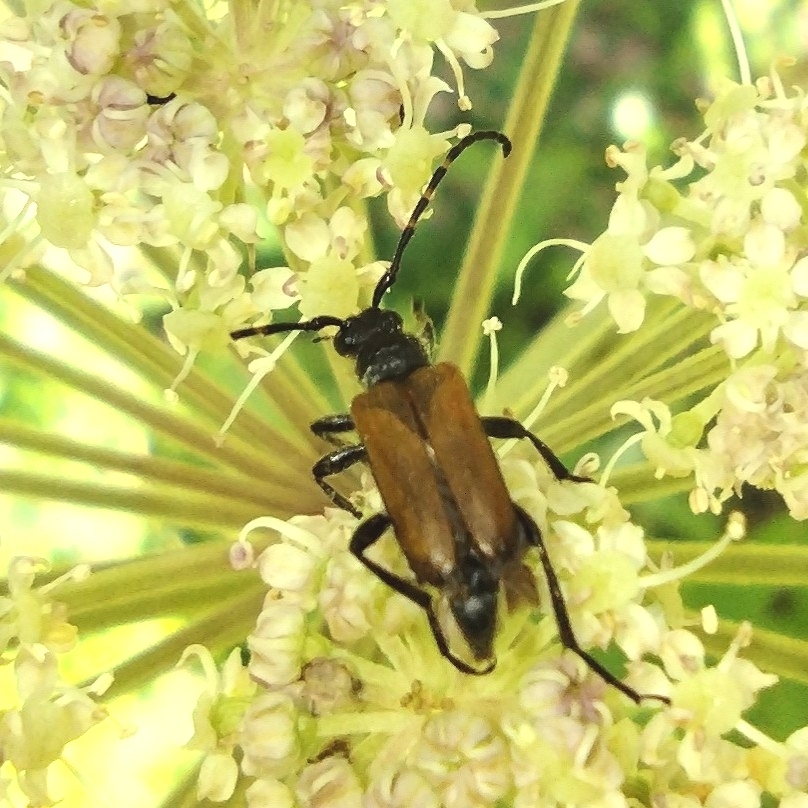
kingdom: Animalia
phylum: Arthropoda
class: Insecta
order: Coleoptera
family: Cerambycidae
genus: Paracorymbia
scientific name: Paracorymbia maculicornis
